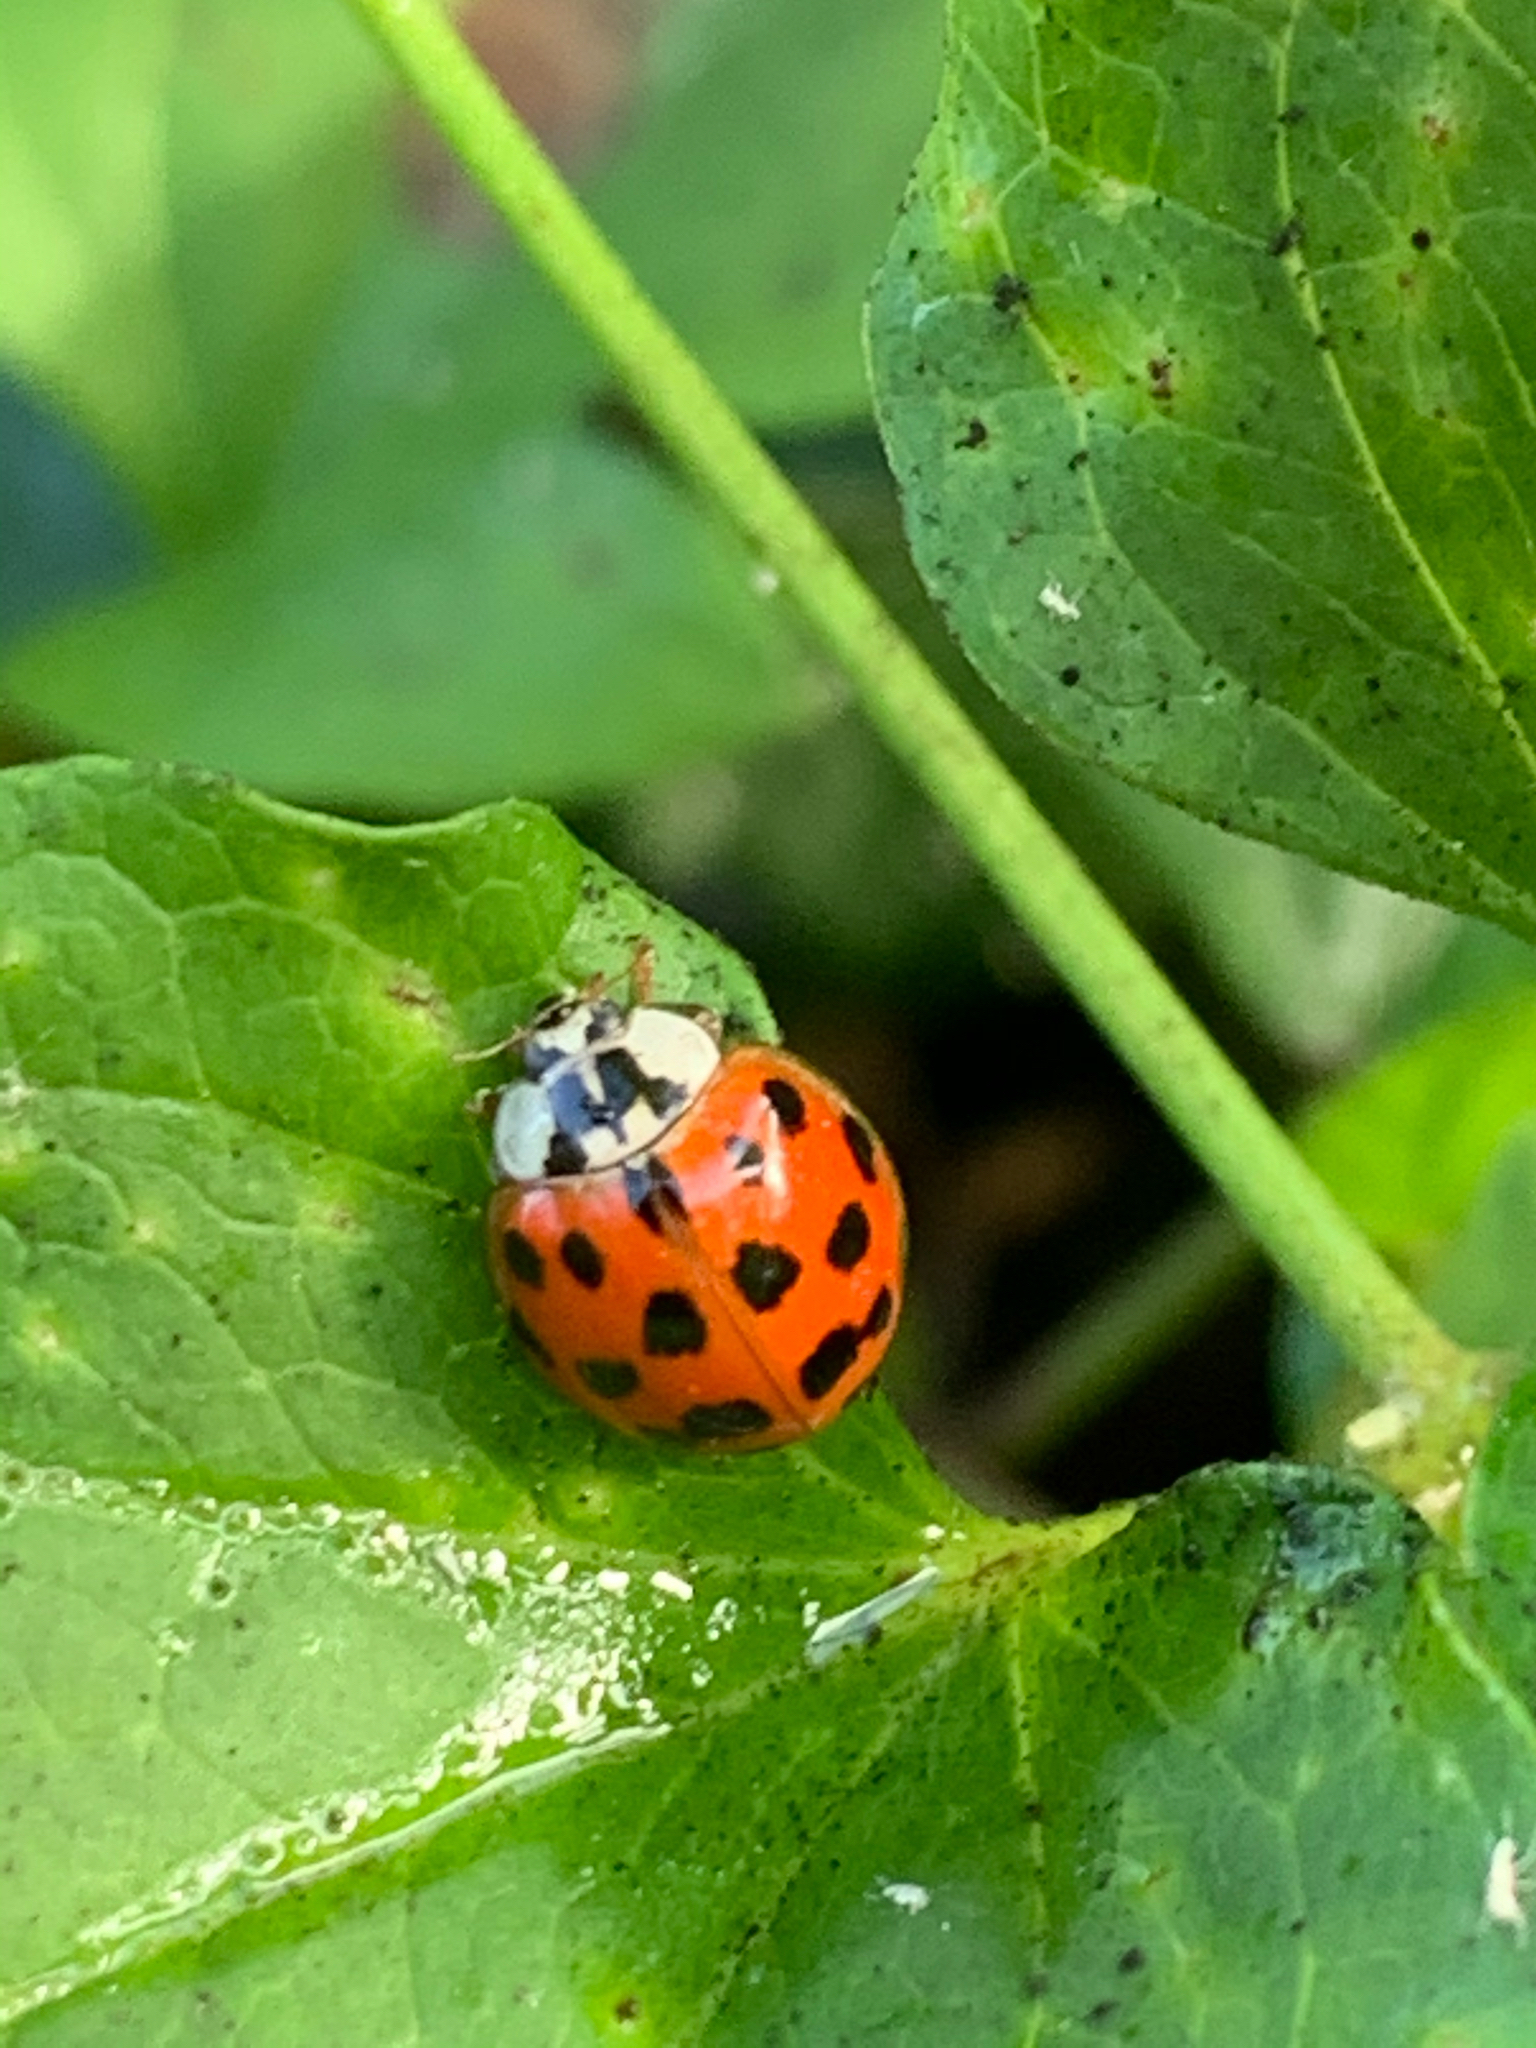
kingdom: Animalia
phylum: Arthropoda
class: Insecta
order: Coleoptera
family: Coccinellidae
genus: Harmonia
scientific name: Harmonia axyridis
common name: Harlequin ladybird
